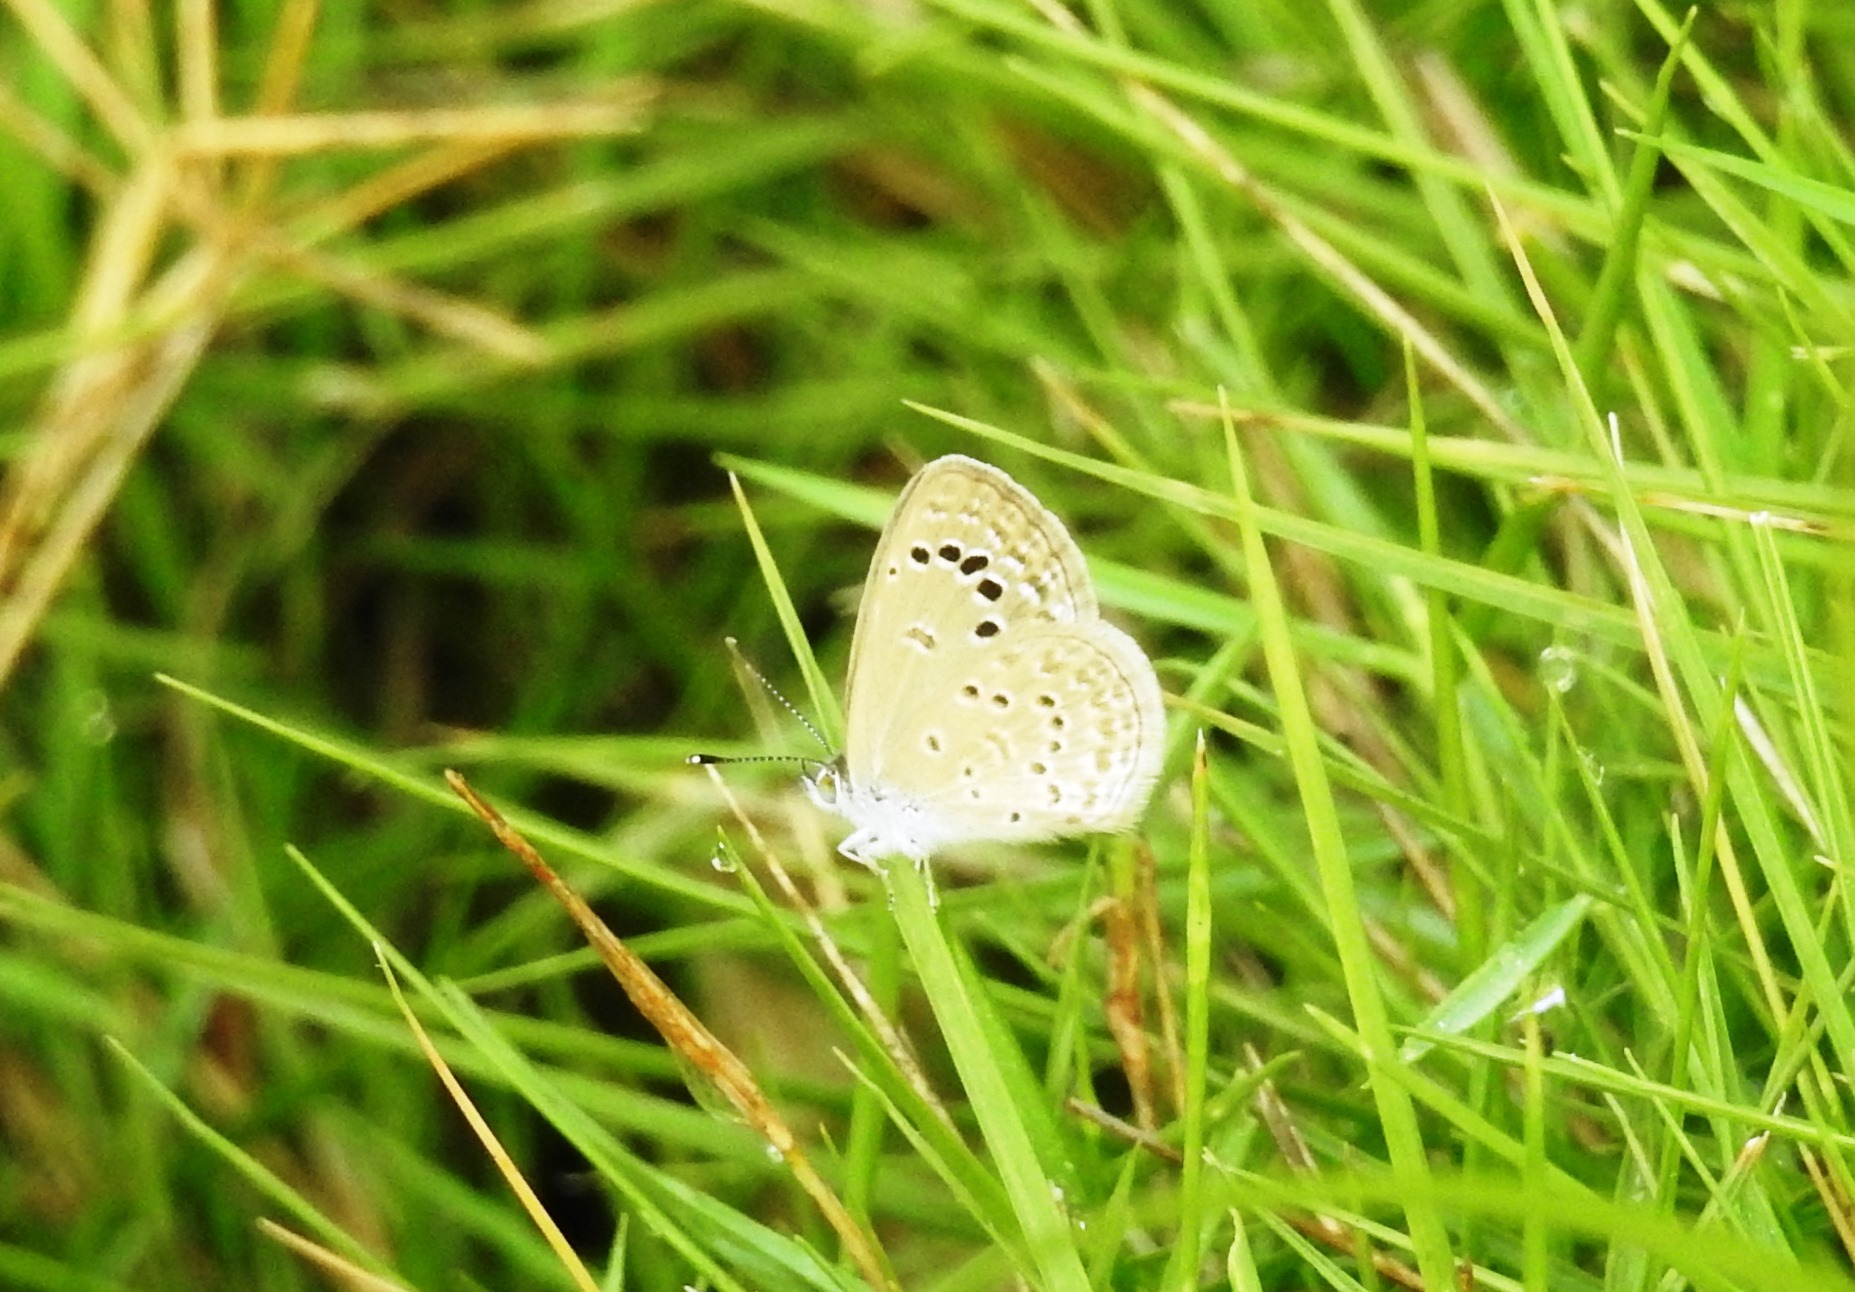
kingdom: Animalia
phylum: Arthropoda
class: Insecta
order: Lepidoptera
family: Lycaenidae
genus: Zizina
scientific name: Zizina otis
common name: Lesser grass blue
